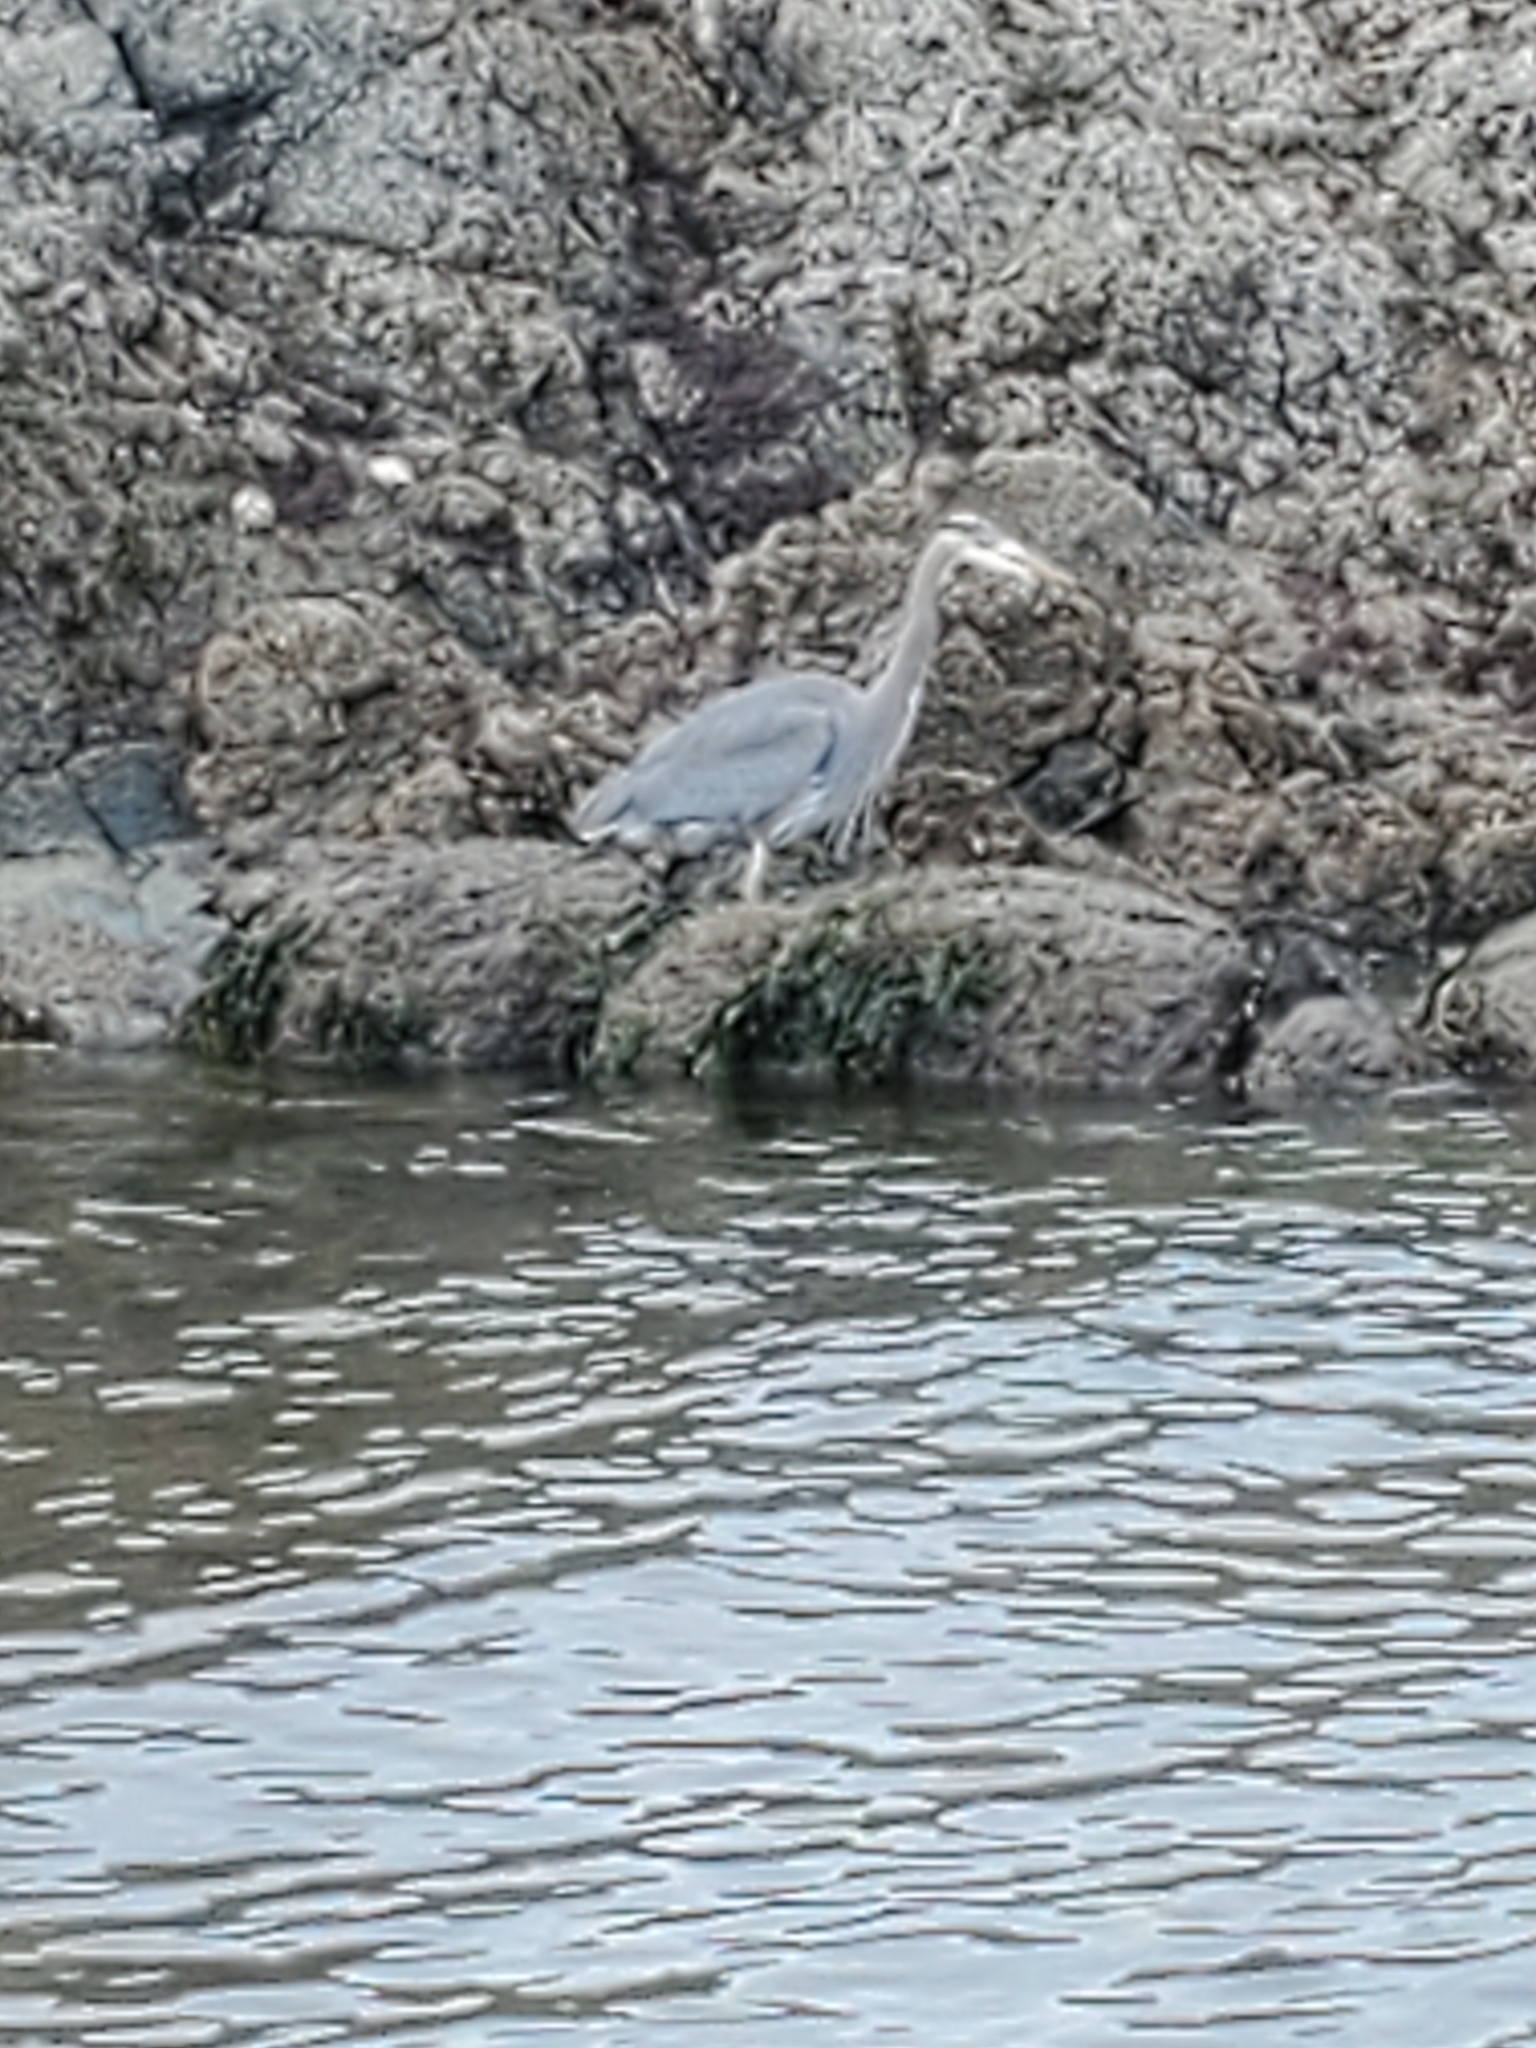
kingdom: Animalia
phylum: Chordata
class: Aves
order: Pelecaniformes
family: Ardeidae
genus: Ardea
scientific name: Ardea herodias
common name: Great blue heron
